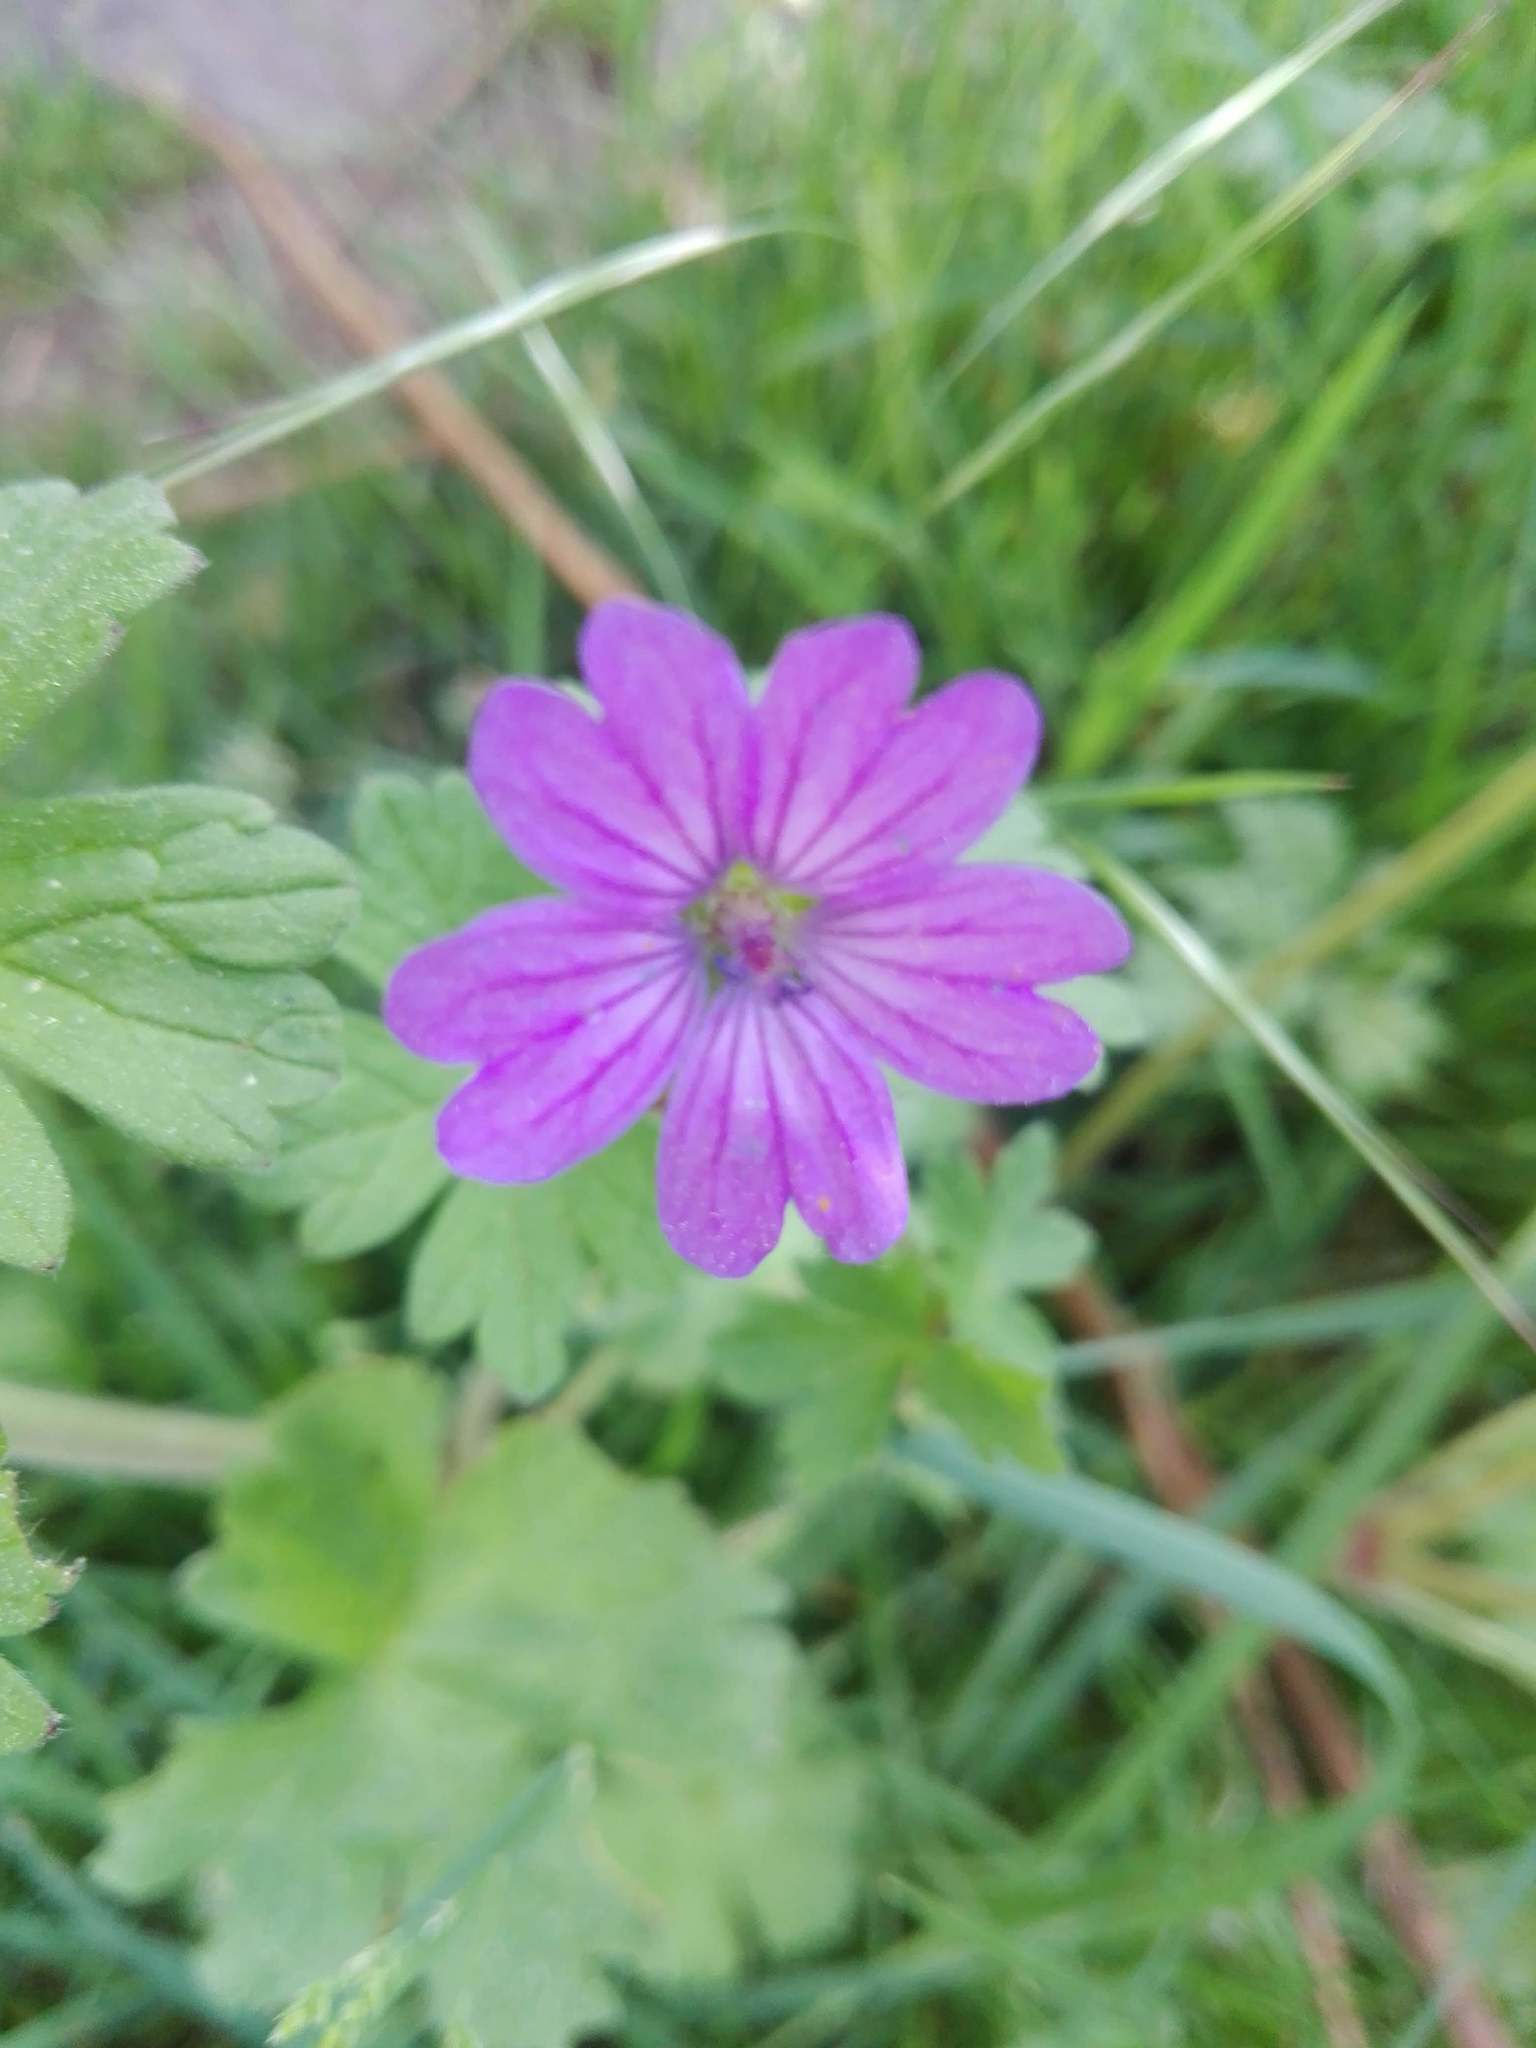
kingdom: Plantae
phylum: Tracheophyta
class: Magnoliopsida
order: Geraniales
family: Geraniaceae
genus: Geranium
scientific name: Geranium pyrenaicum
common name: Hedgerow crane's-bill
